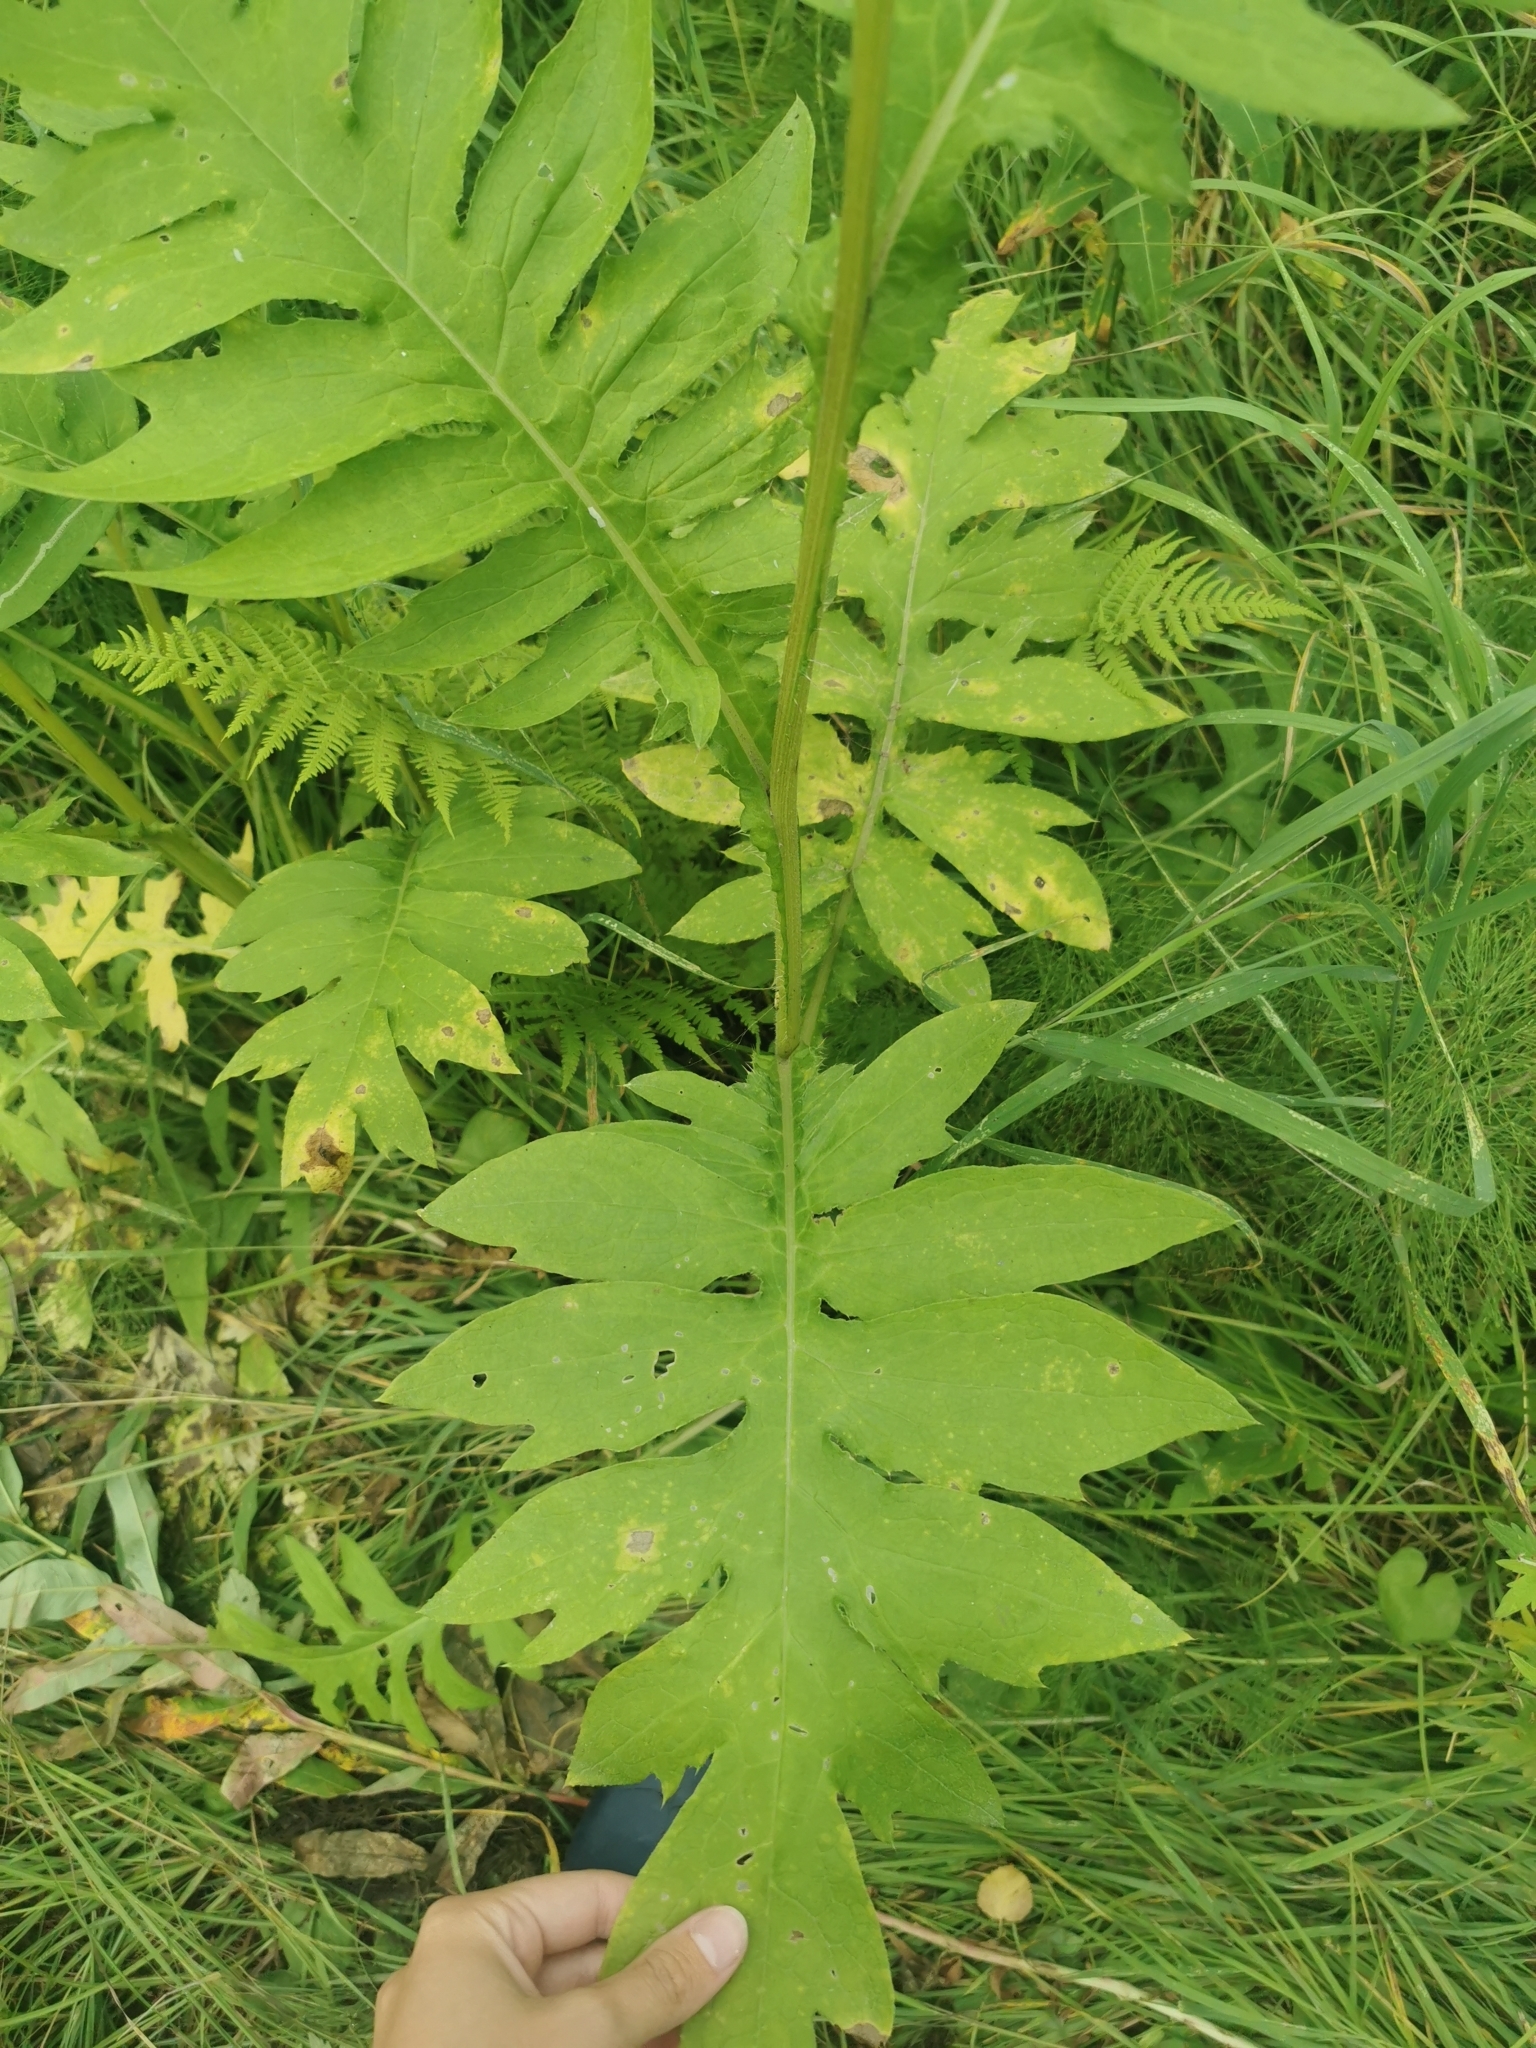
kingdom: Plantae
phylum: Tracheophyta
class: Magnoliopsida
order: Asterales
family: Asteraceae
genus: Cirsium
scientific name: Cirsium kamtschaticum
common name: Kamchatka thistle
